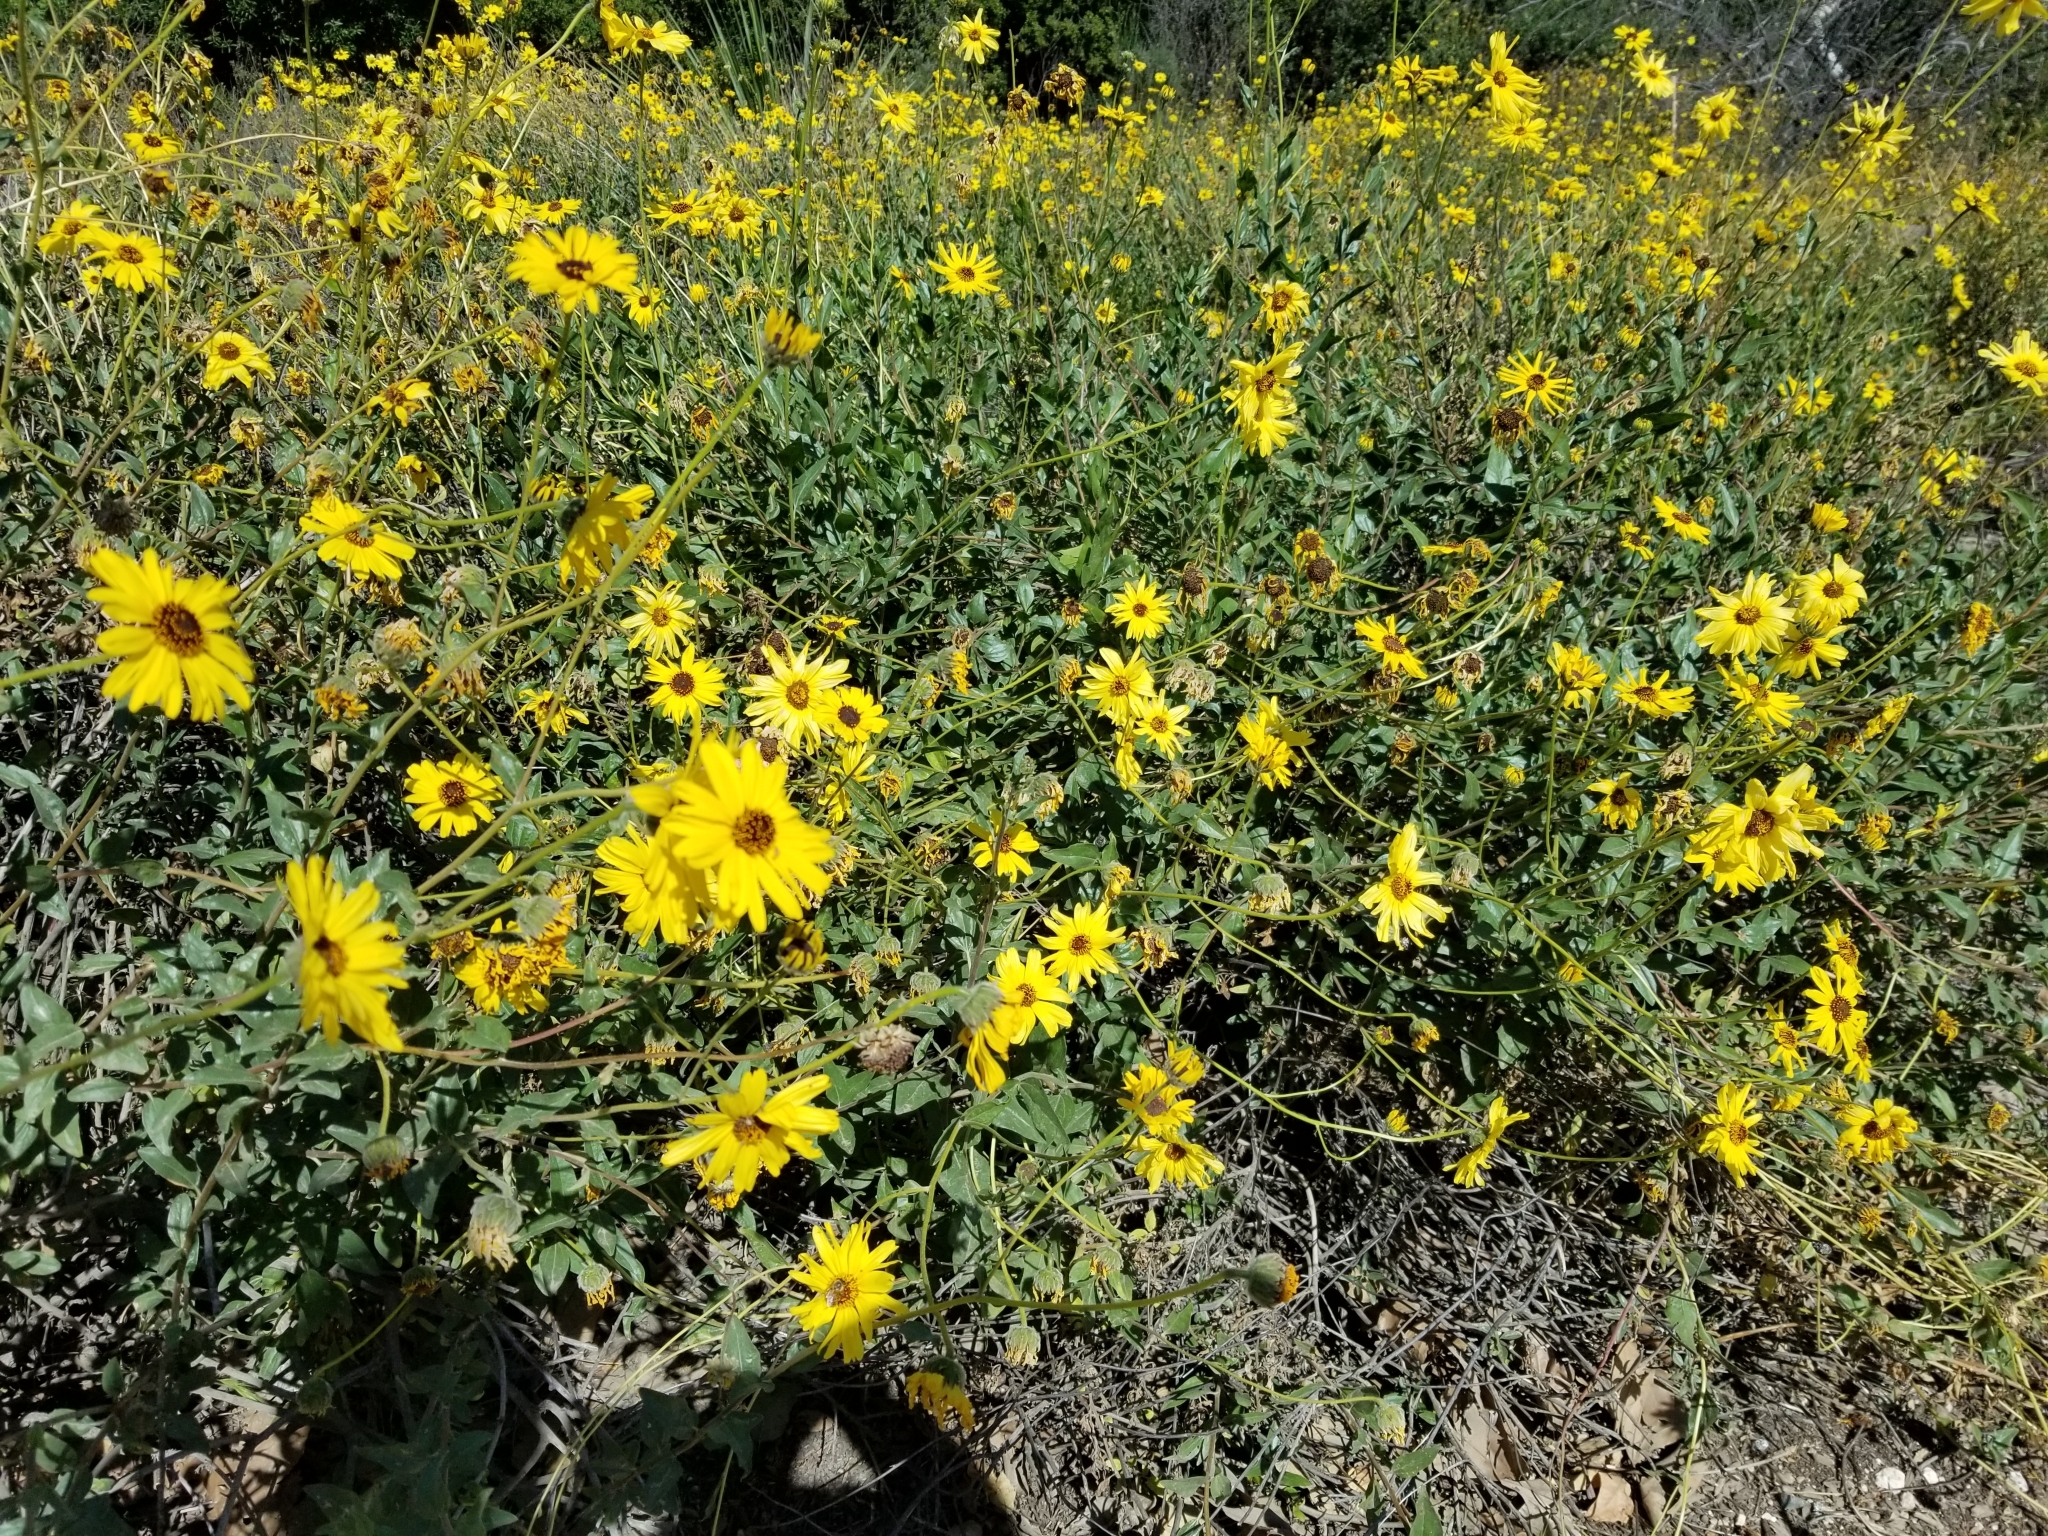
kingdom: Plantae
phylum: Tracheophyta
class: Magnoliopsida
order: Asterales
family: Asteraceae
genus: Encelia
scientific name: Encelia californica
